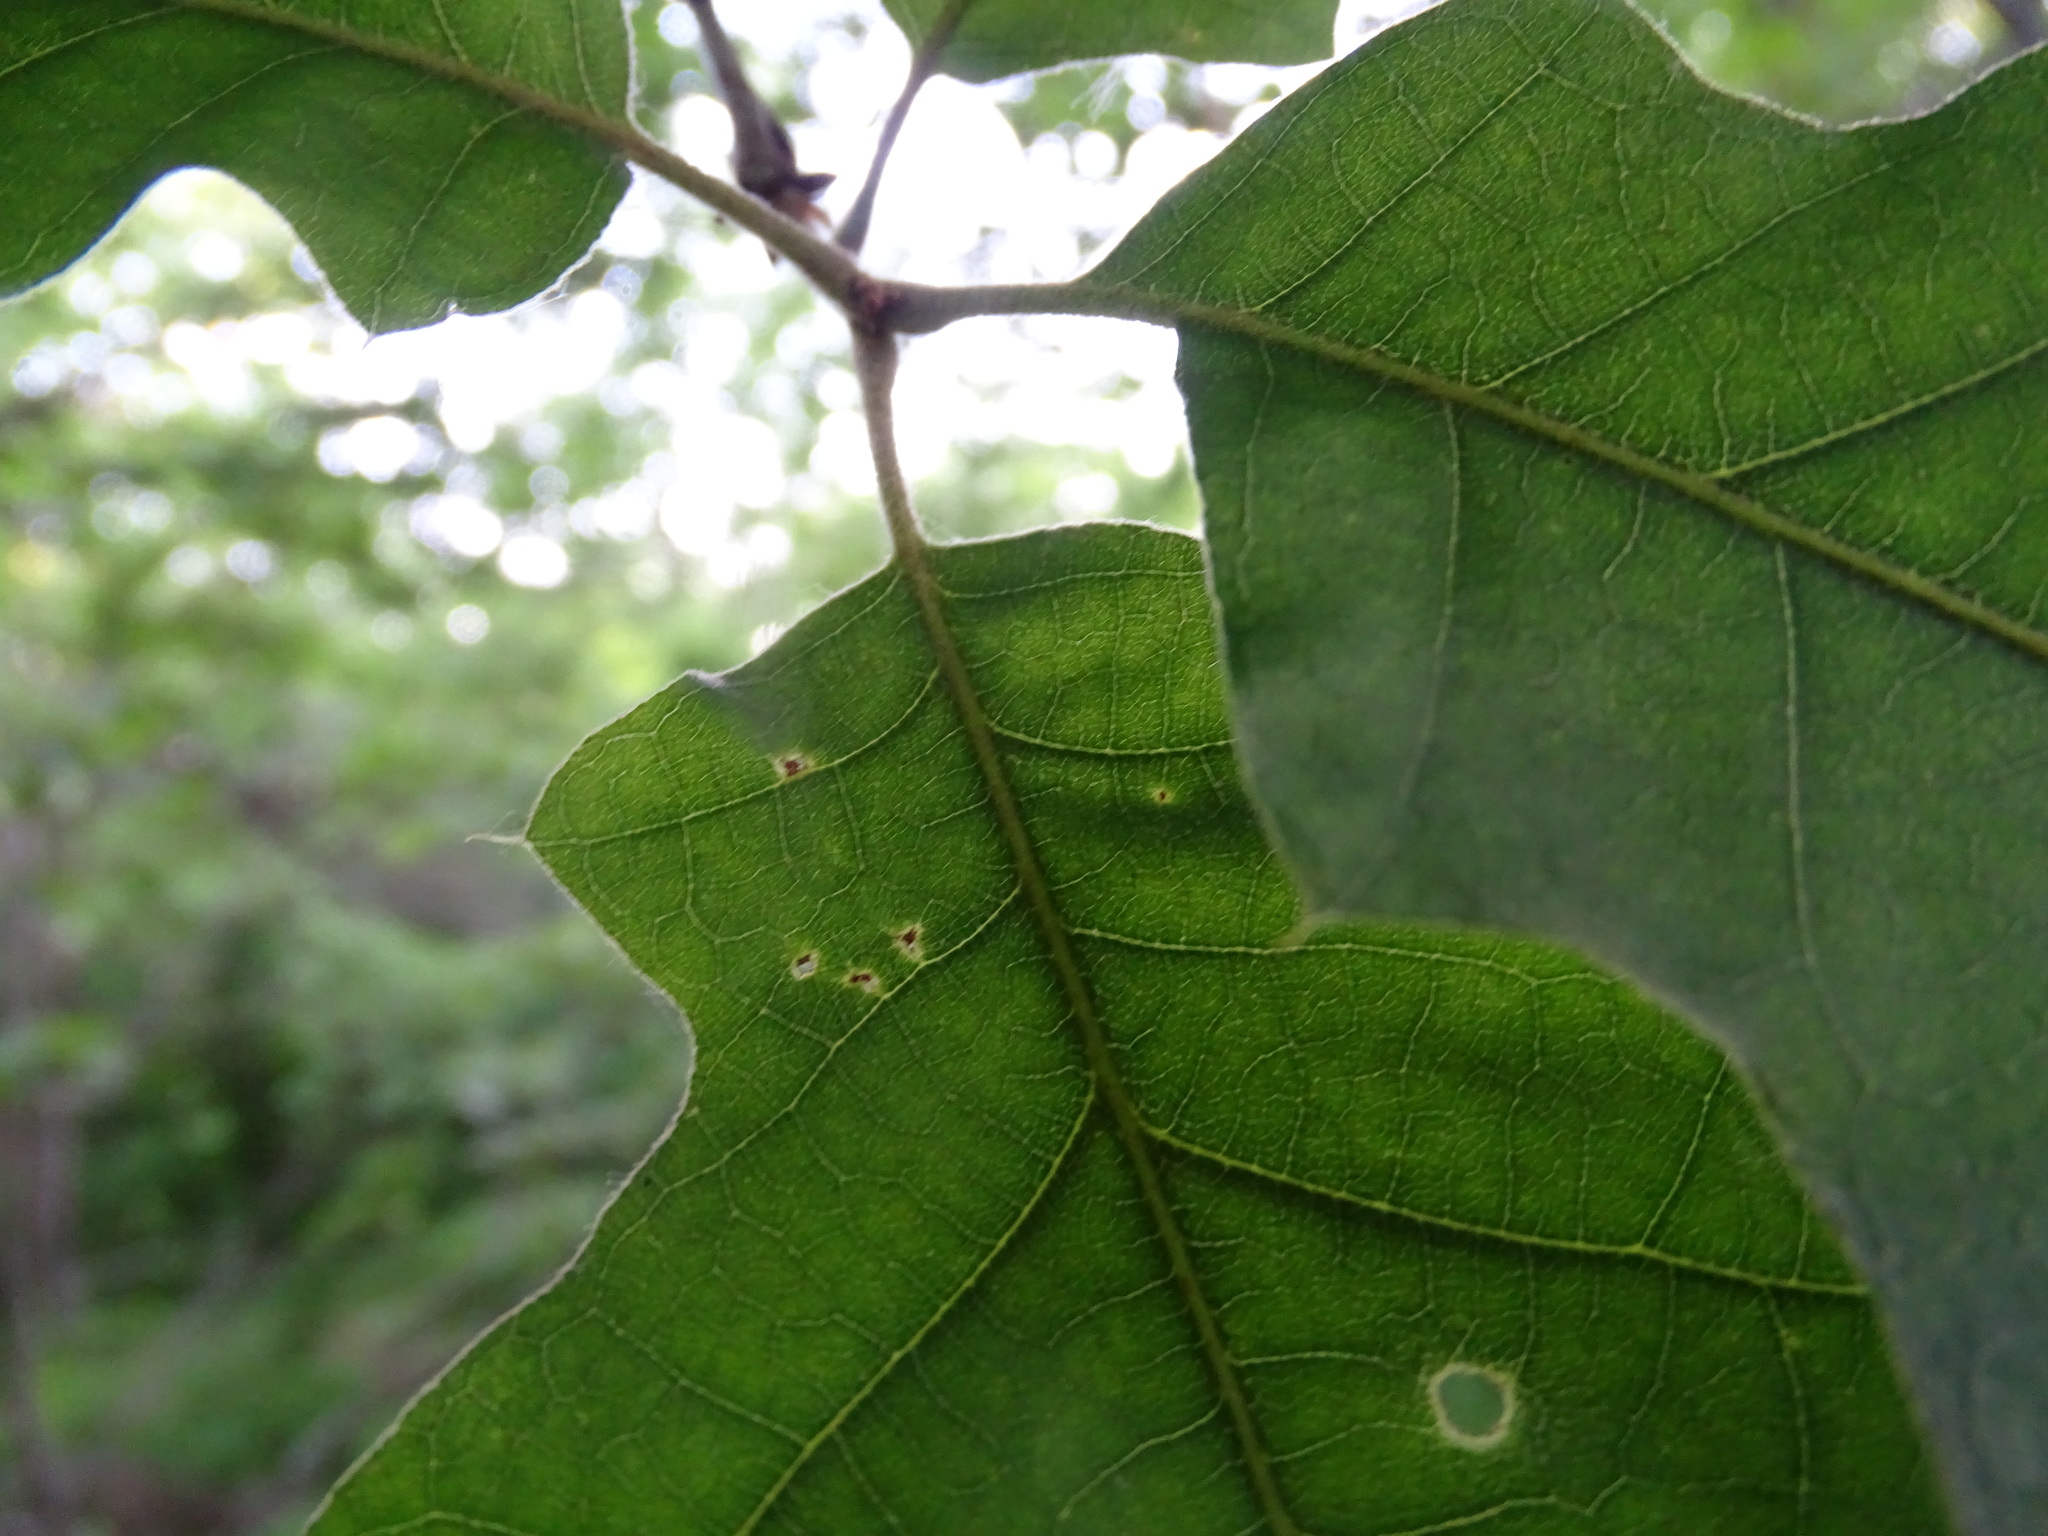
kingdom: Plantae
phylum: Tracheophyta
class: Magnoliopsida
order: Fagales
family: Fagaceae
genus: Quercus
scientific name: Quercus velutina
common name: Black oak
